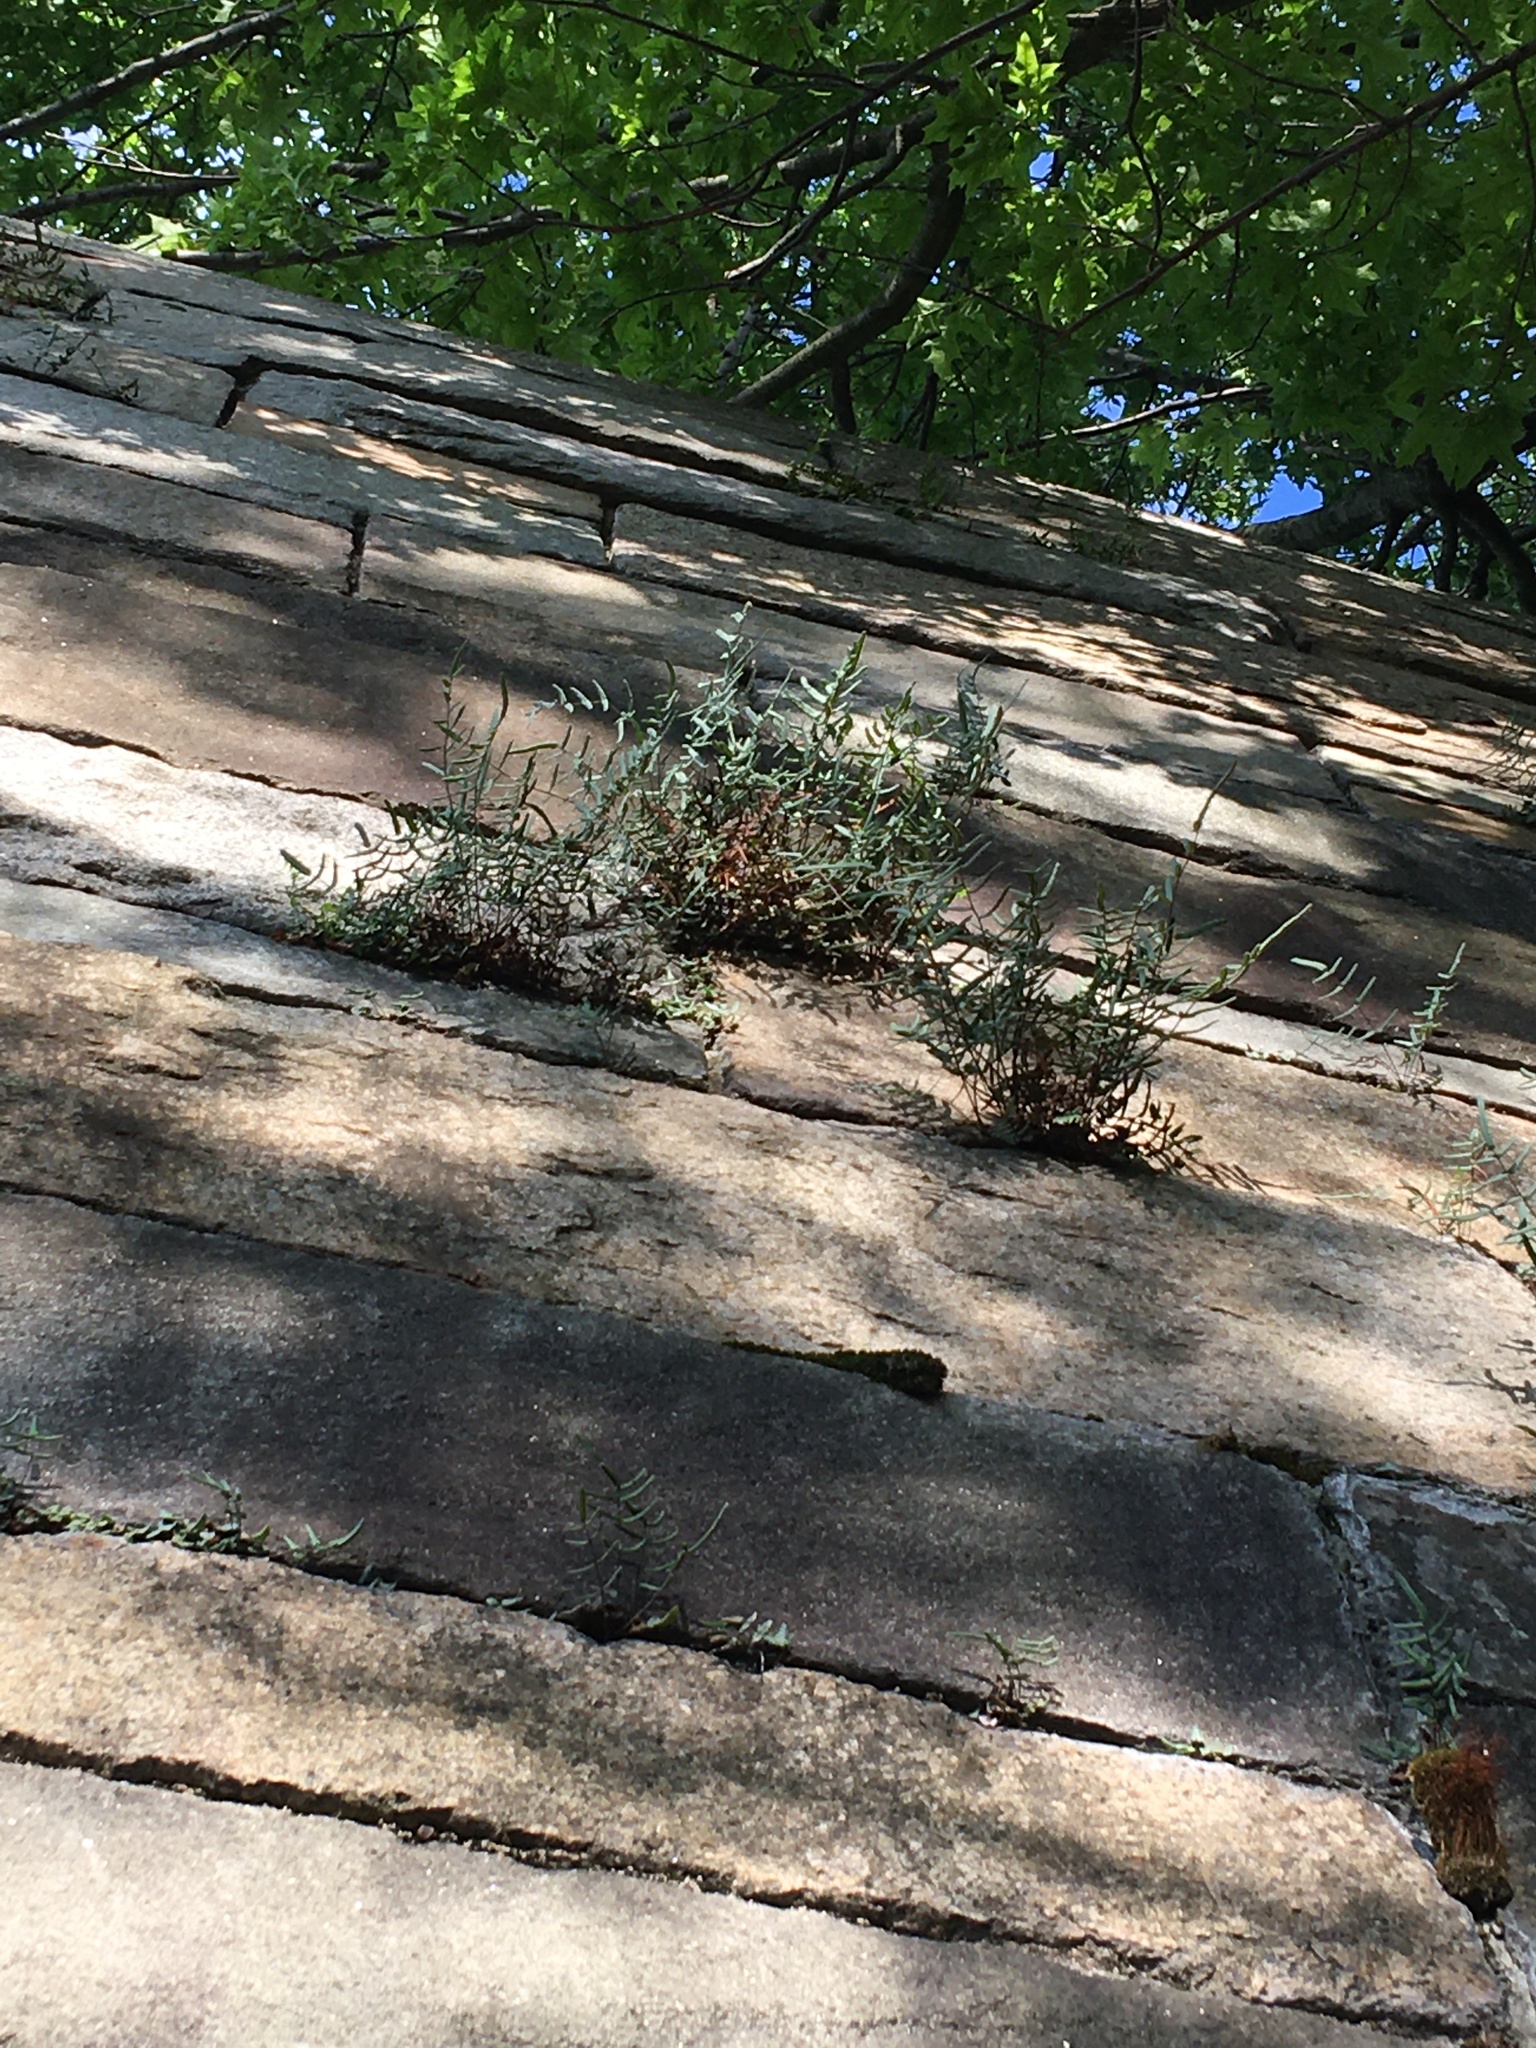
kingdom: Plantae
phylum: Tracheophyta
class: Polypodiopsida
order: Polypodiales
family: Pteridaceae
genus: Pellaea
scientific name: Pellaea atropurpurea
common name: Hairy cliffbrake
